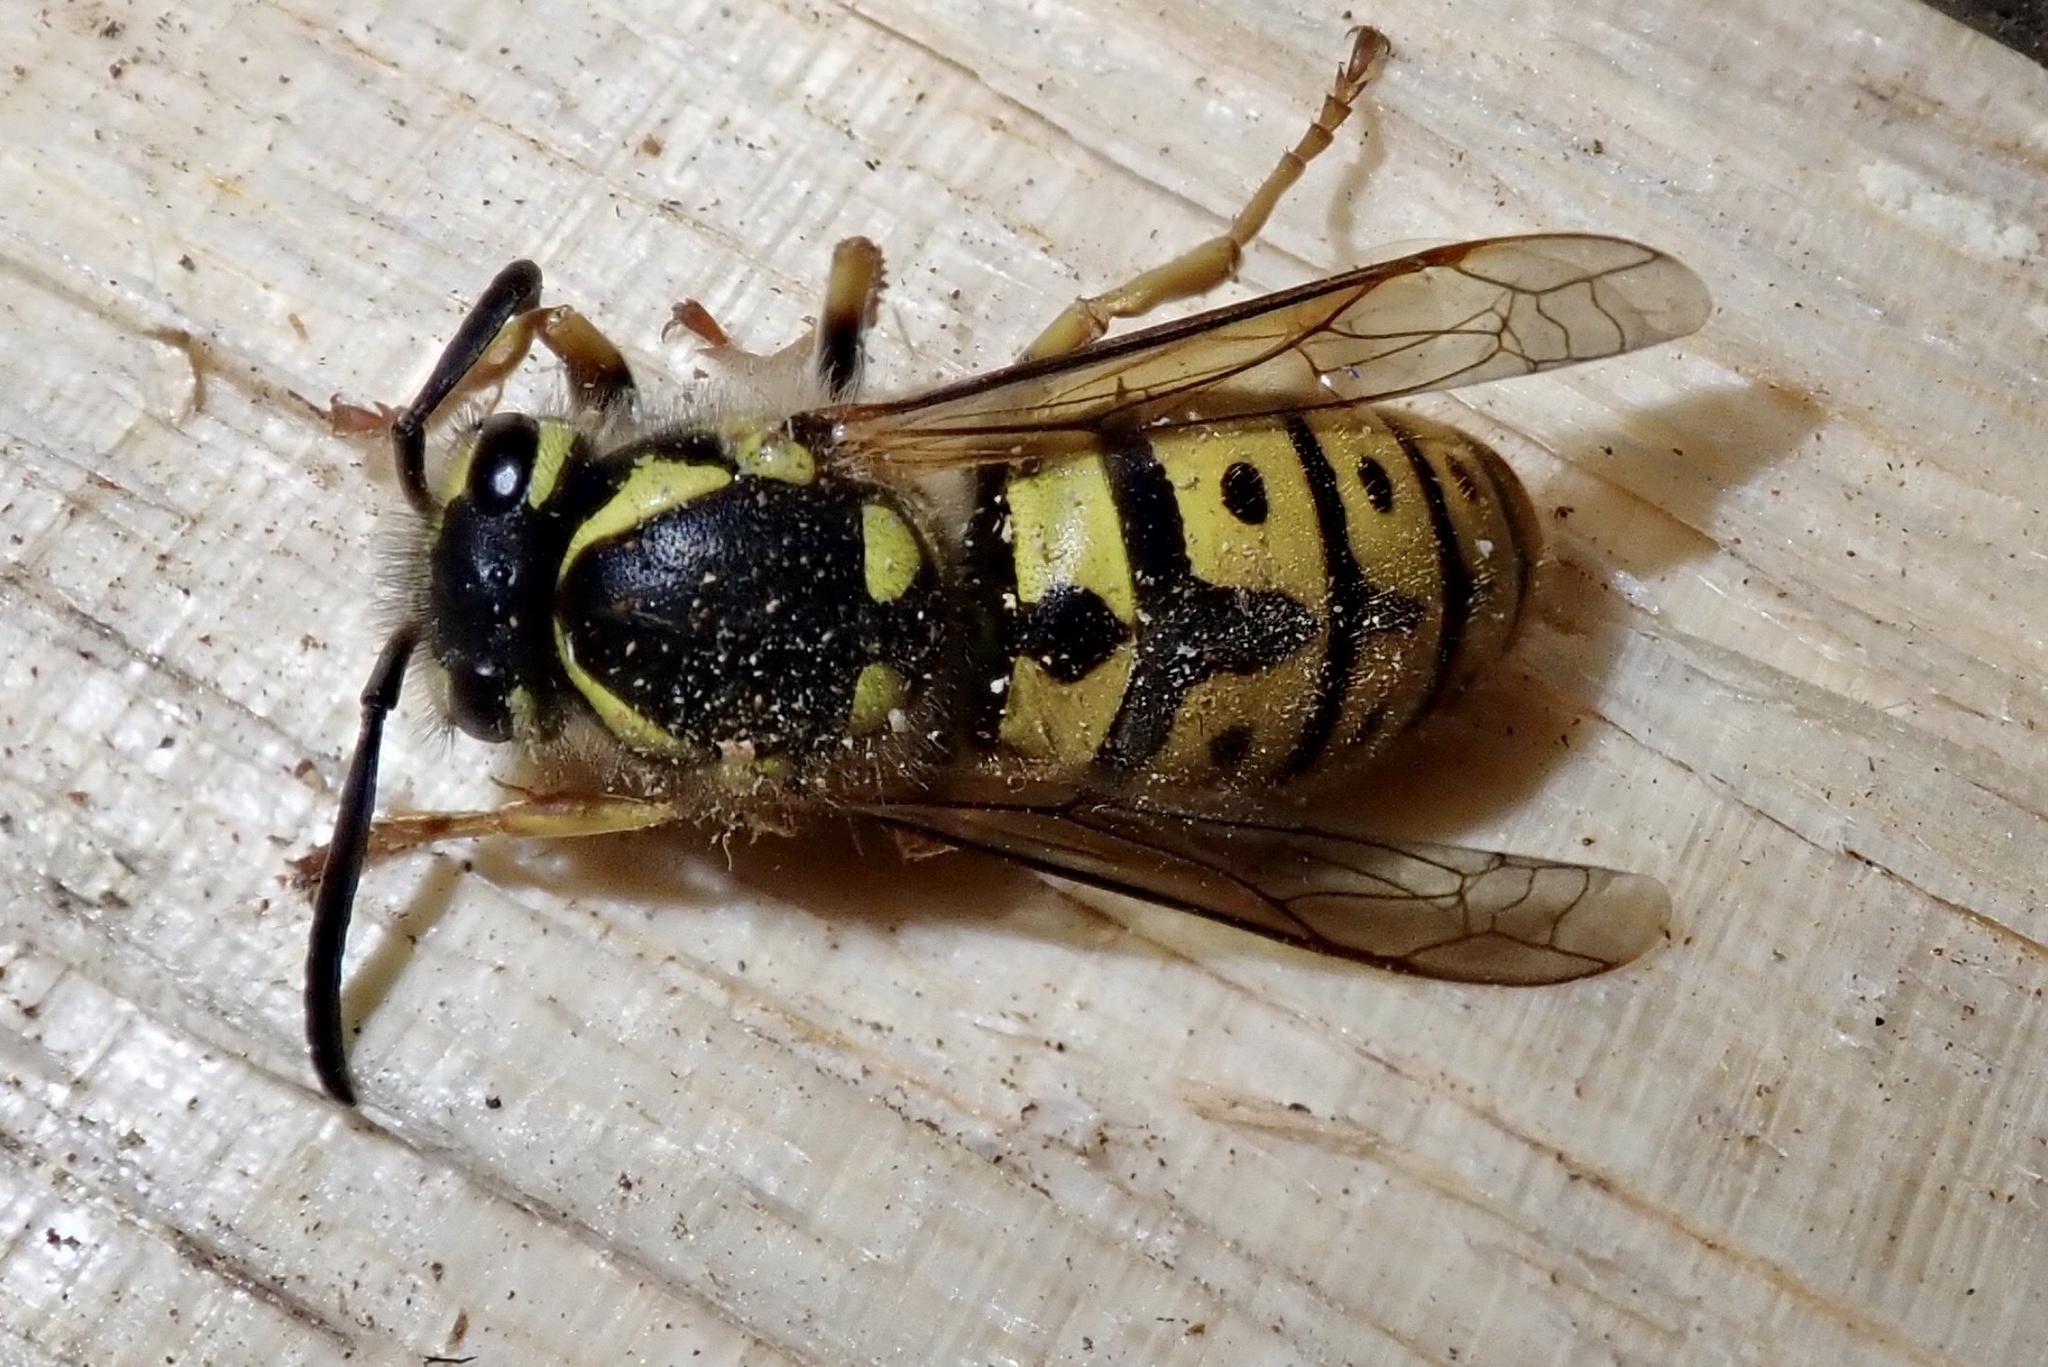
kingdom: Animalia
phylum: Arthropoda
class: Insecta
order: Hymenoptera
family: Vespidae
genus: Vespula
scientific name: Vespula germanica
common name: German wasp
